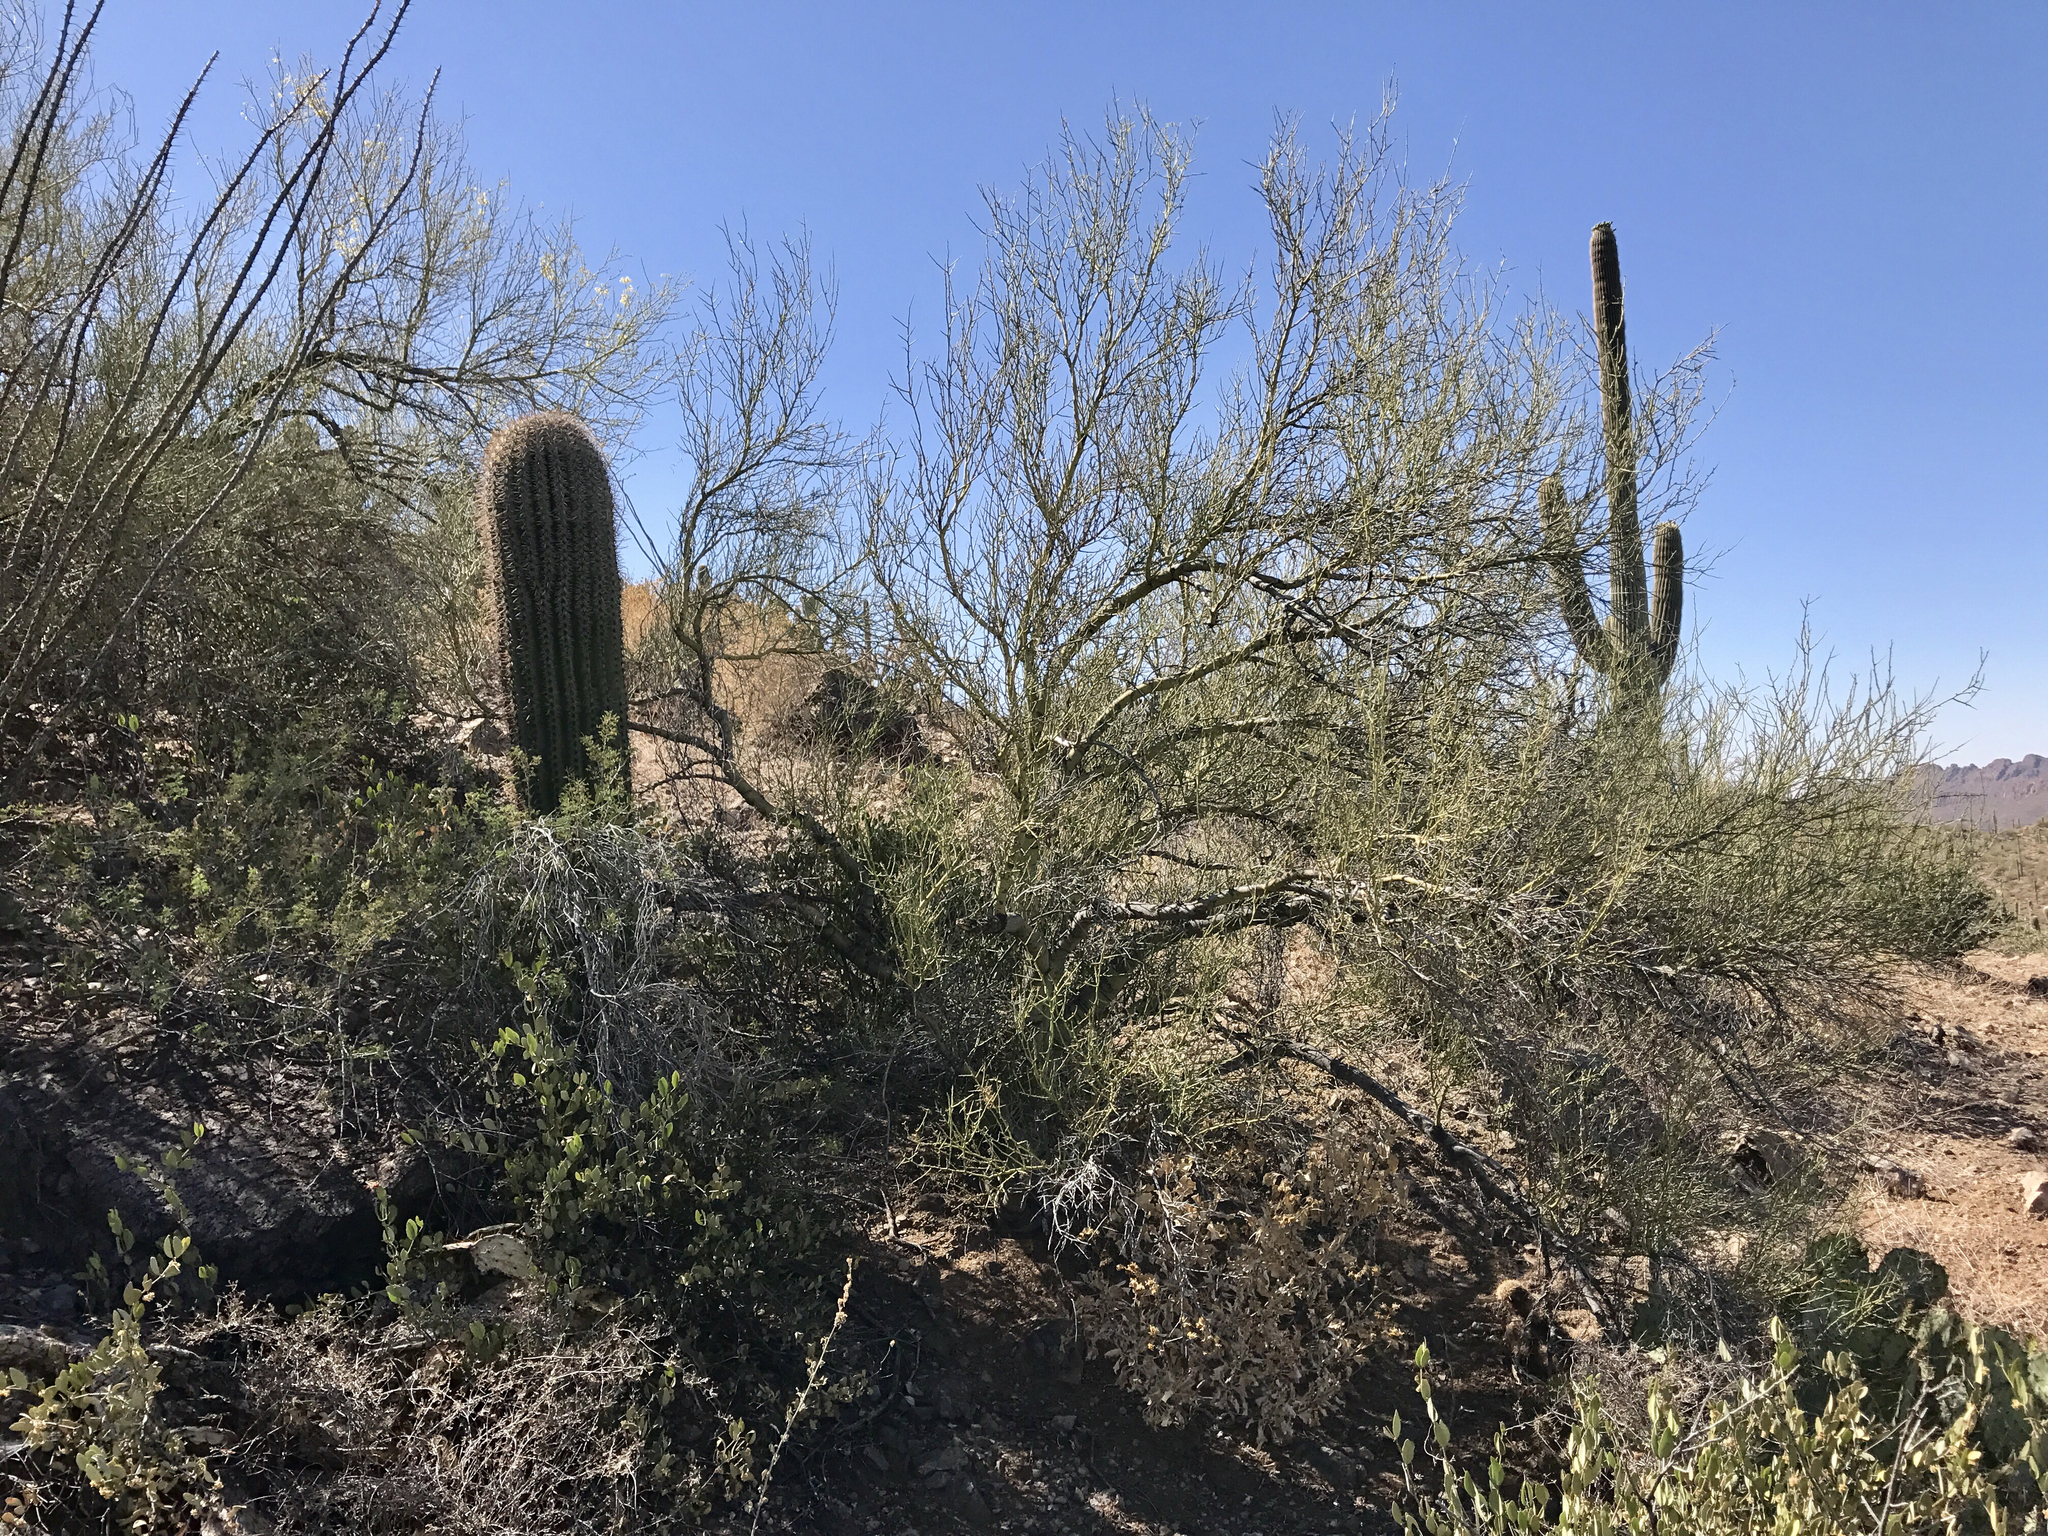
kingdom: Plantae
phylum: Tracheophyta
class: Magnoliopsida
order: Fabales
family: Fabaceae
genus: Parkinsonia
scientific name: Parkinsonia microphylla
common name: Yellow paloverde
